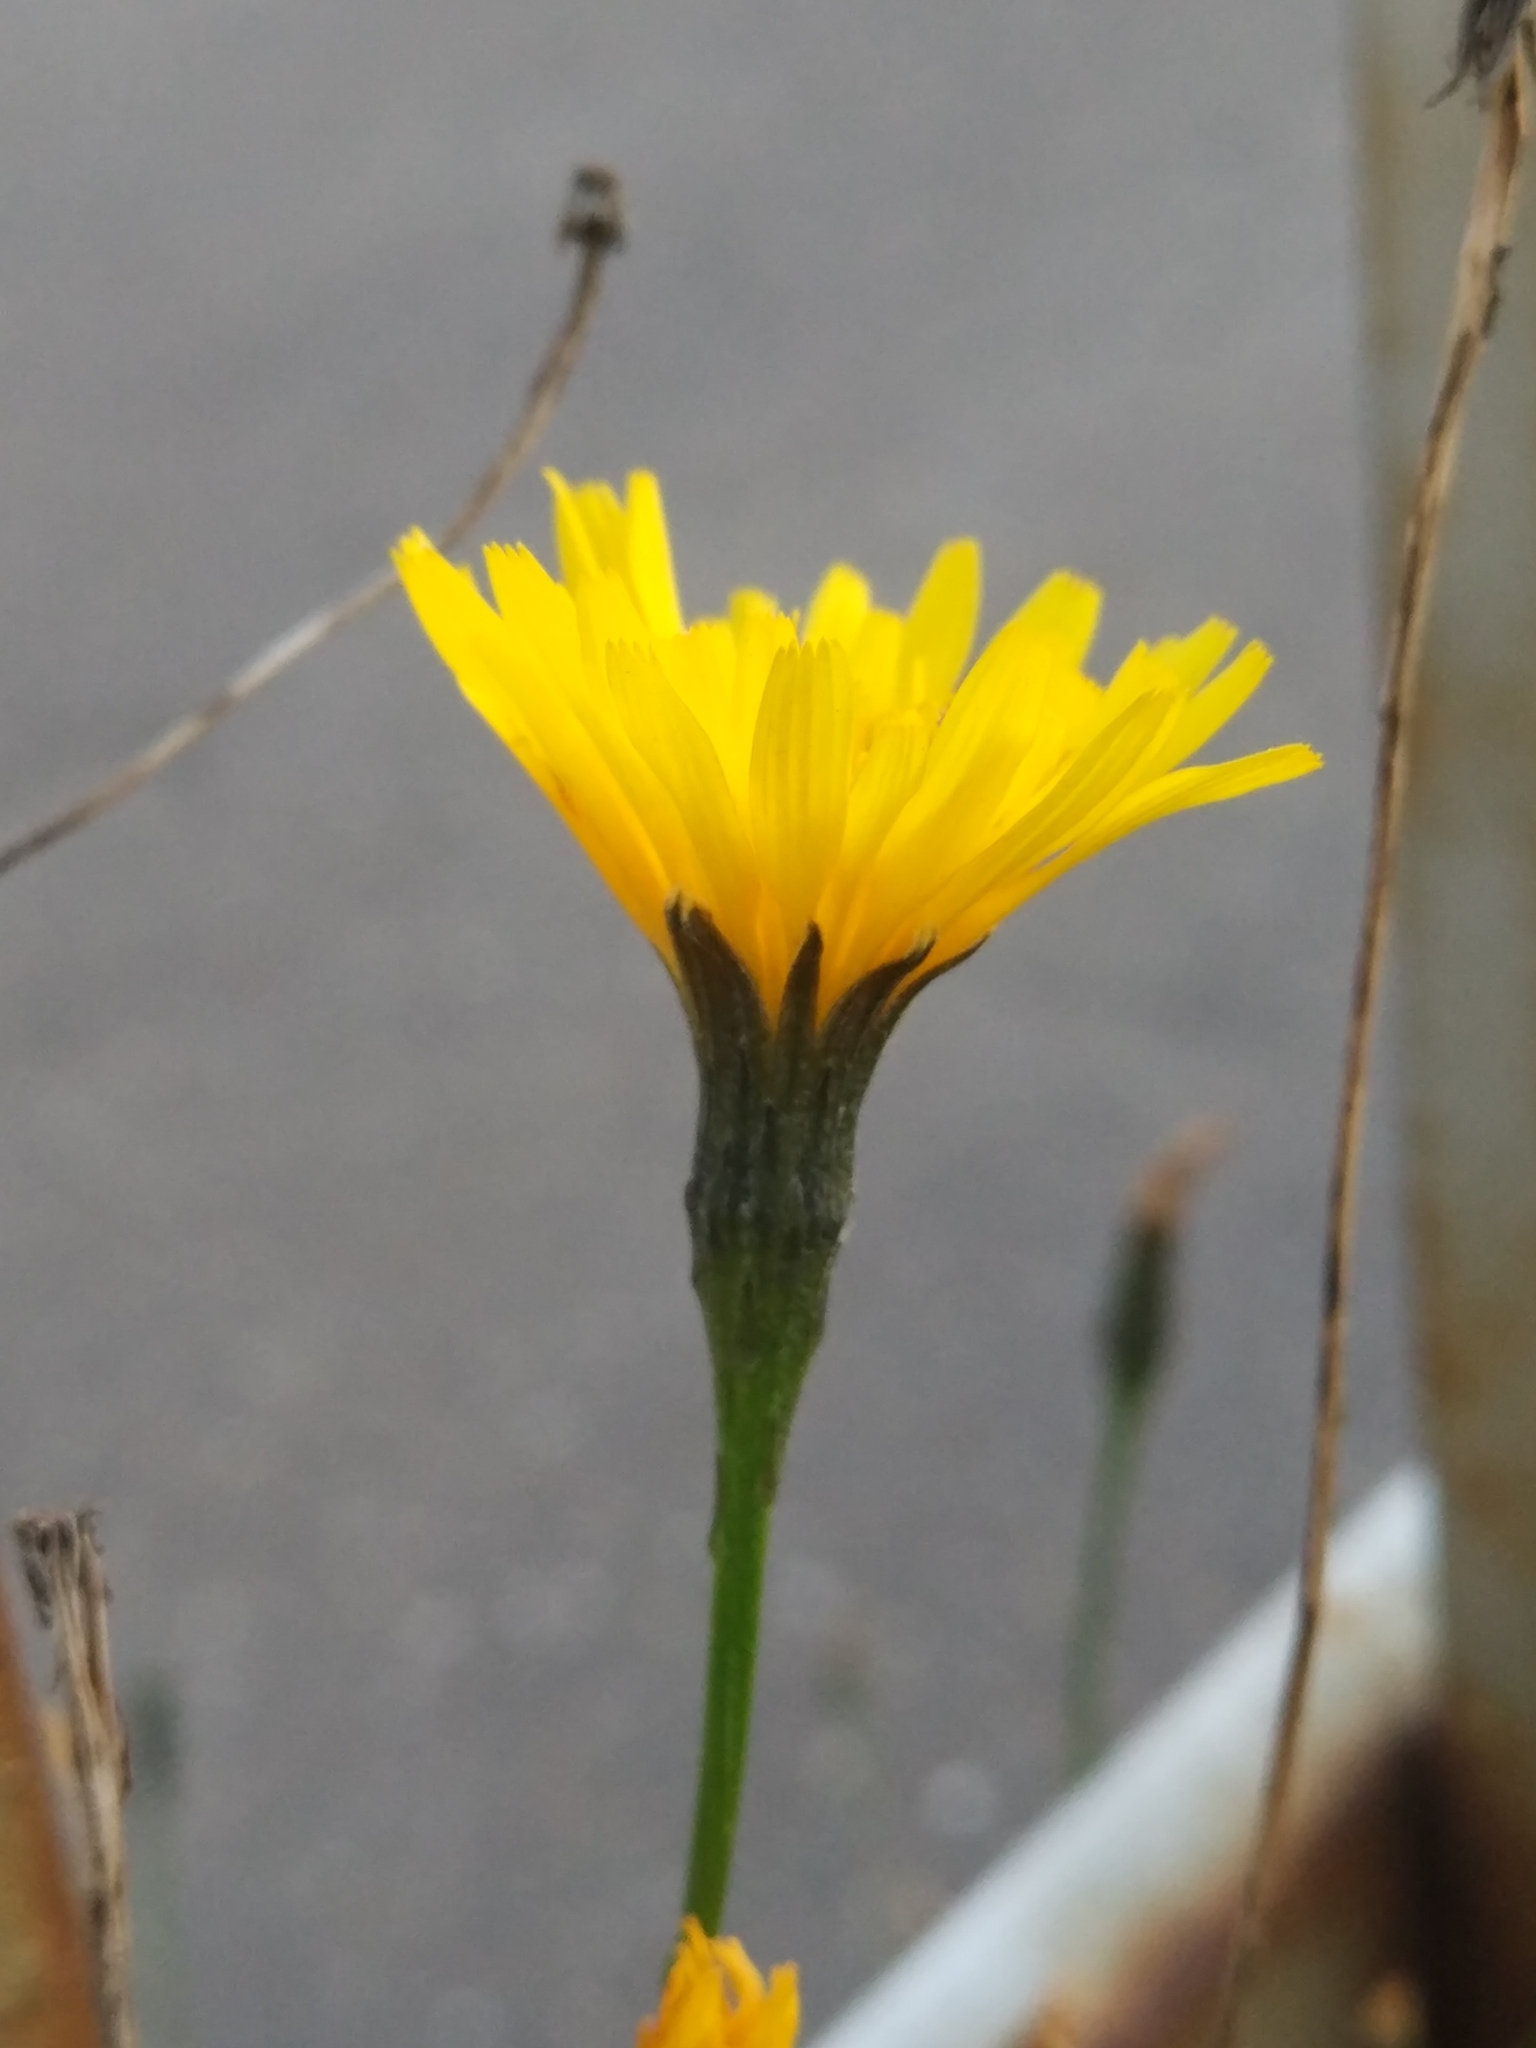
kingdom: Plantae
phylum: Tracheophyta
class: Magnoliopsida
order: Asterales
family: Asteraceae
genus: Scorzoneroides
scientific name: Scorzoneroides autumnalis
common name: Autumn hawkbit
